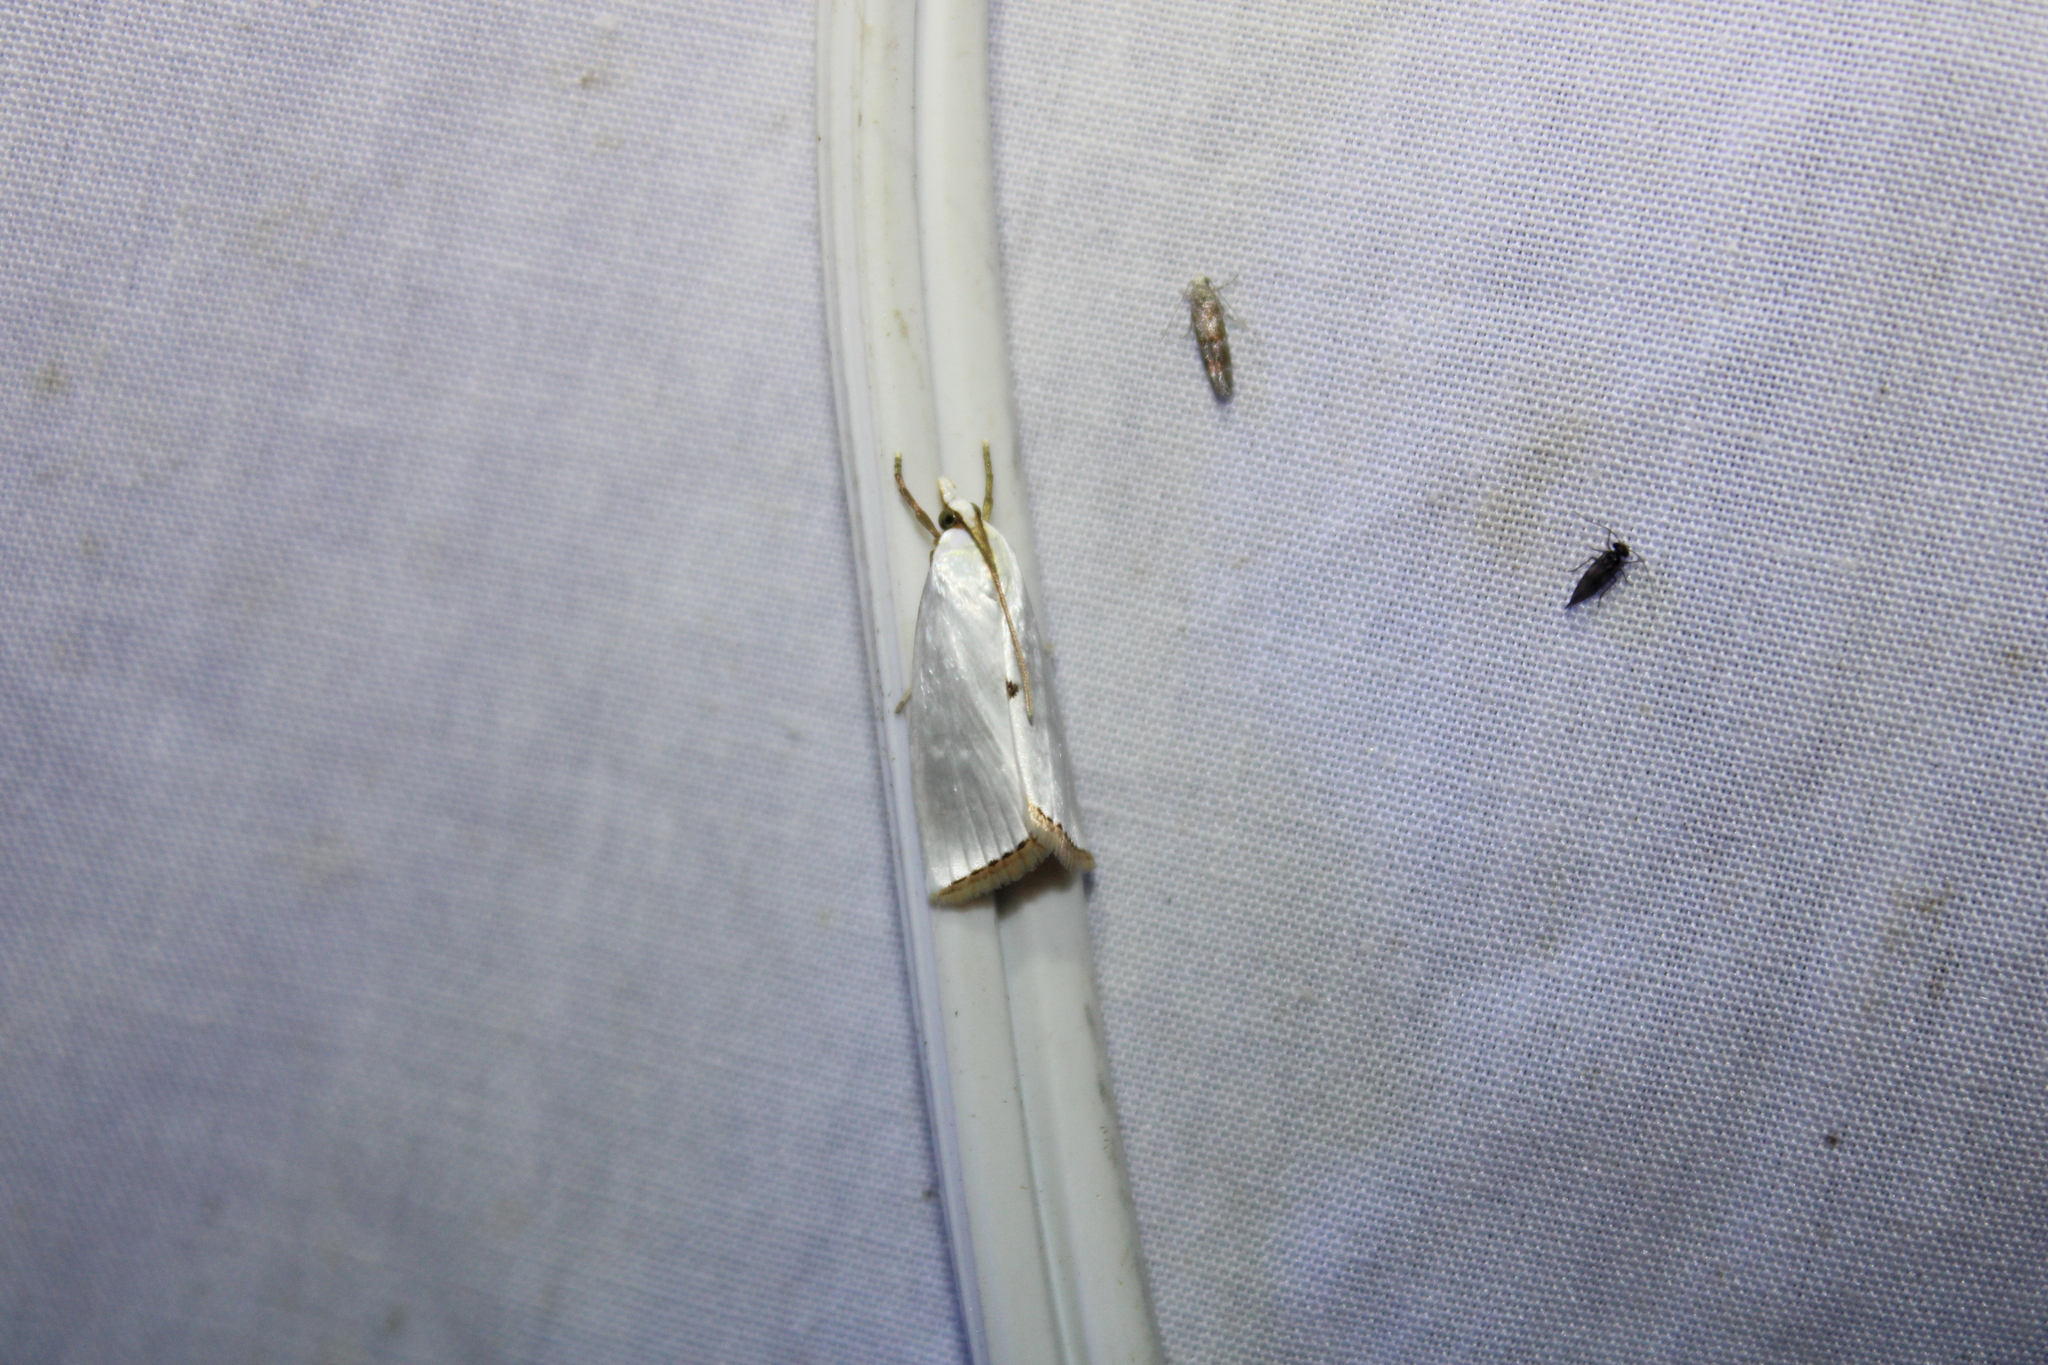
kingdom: Animalia
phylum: Arthropoda
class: Insecta
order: Lepidoptera
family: Crambidae
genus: Argyria
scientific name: Argyria nivalis
